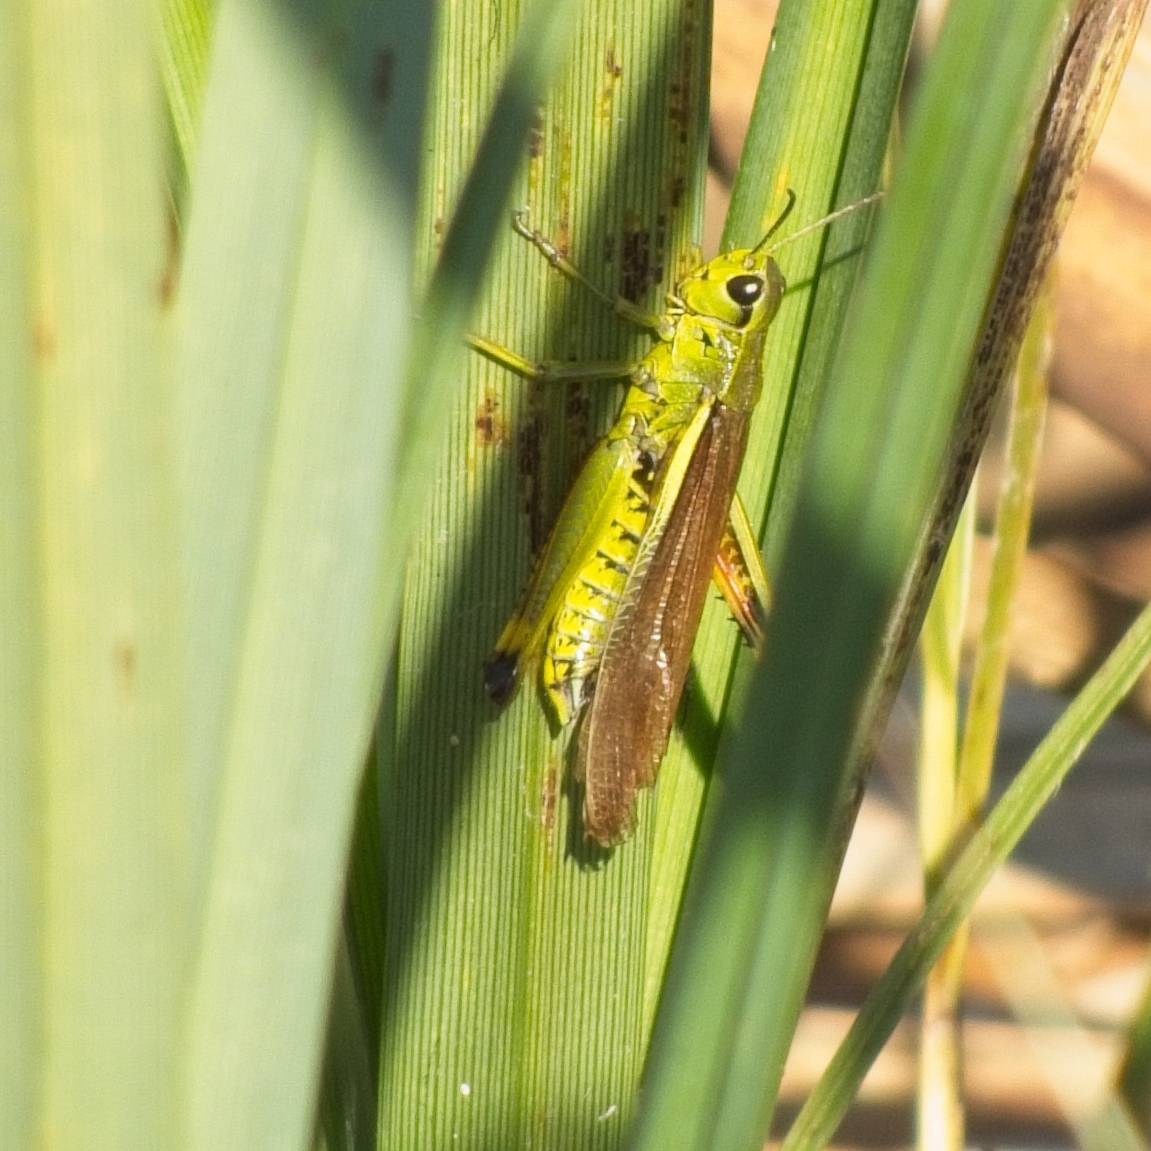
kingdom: Animalia
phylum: Arthropoda
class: Insecta
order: Orthoptera
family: Acrididae
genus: Stethophyma
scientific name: Stethophyma grossum
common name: Large marsh grasshopper
